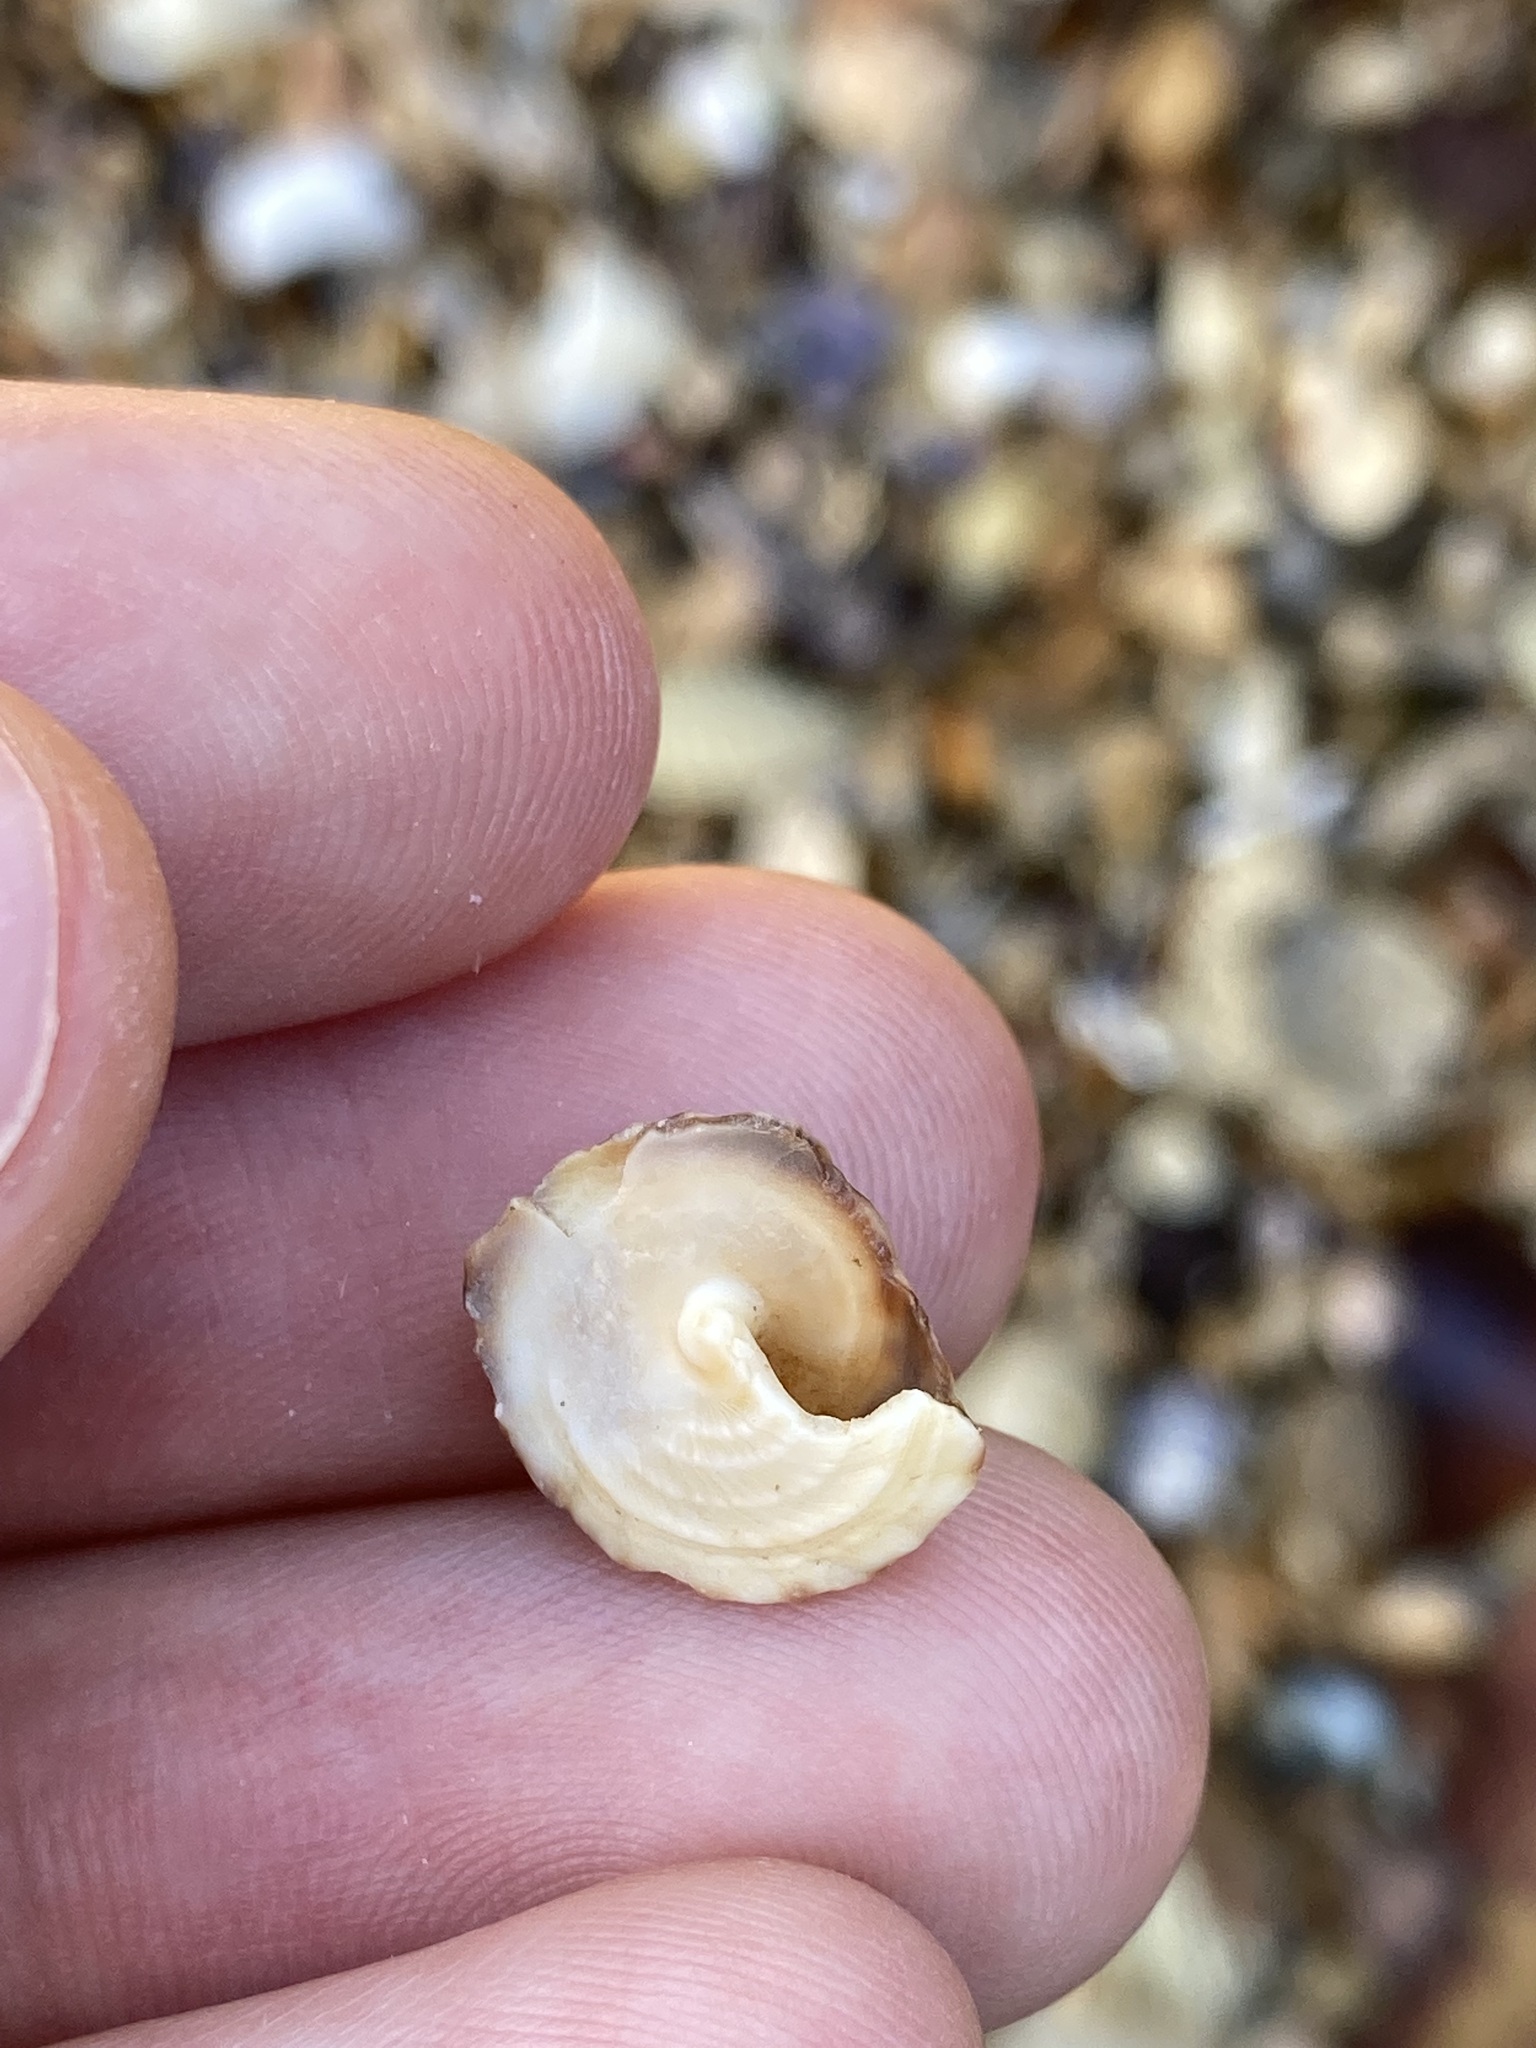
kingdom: Animalia
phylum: Mollusca
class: Gastropoda
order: Littorinimorpha
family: Littorinidae
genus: Bembicium
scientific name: Bembicium nanum
